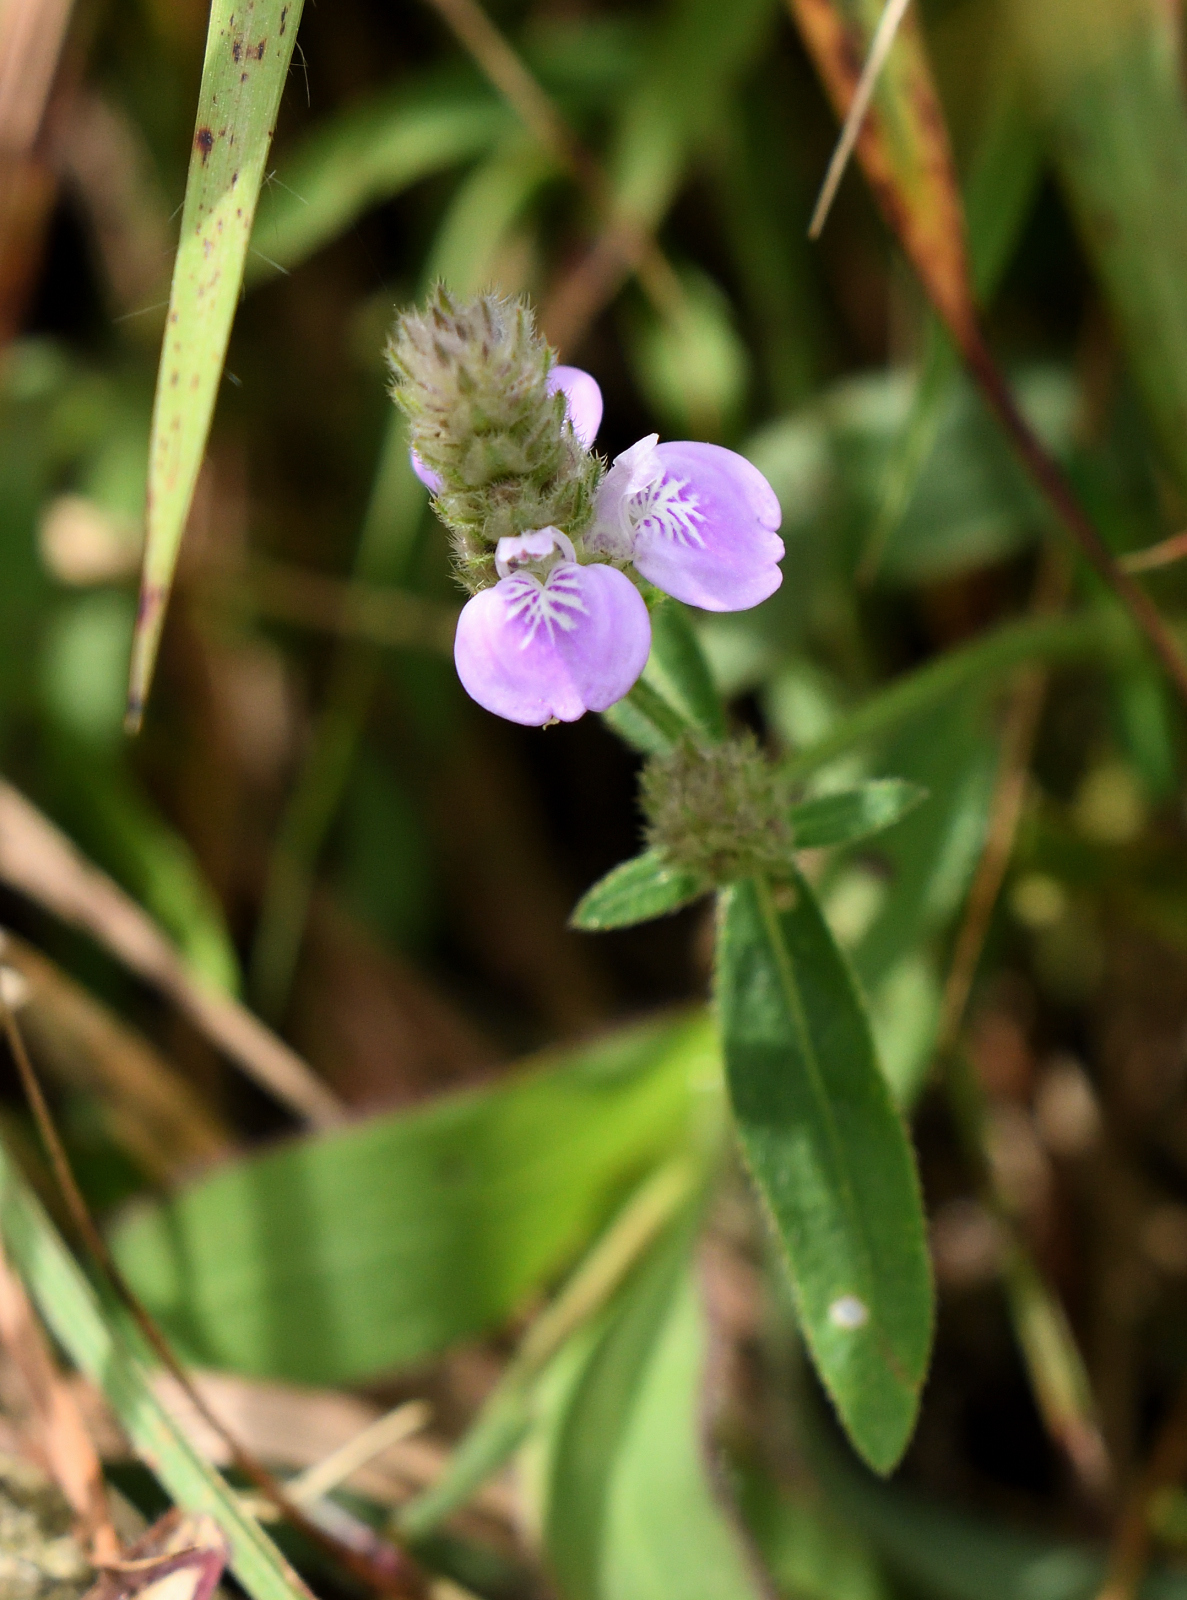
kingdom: Plantae
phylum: Tracheophyta
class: Magnoliopsida
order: Lamiales
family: Acanthaceae
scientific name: Acanthaceae
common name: Acanthaceae
